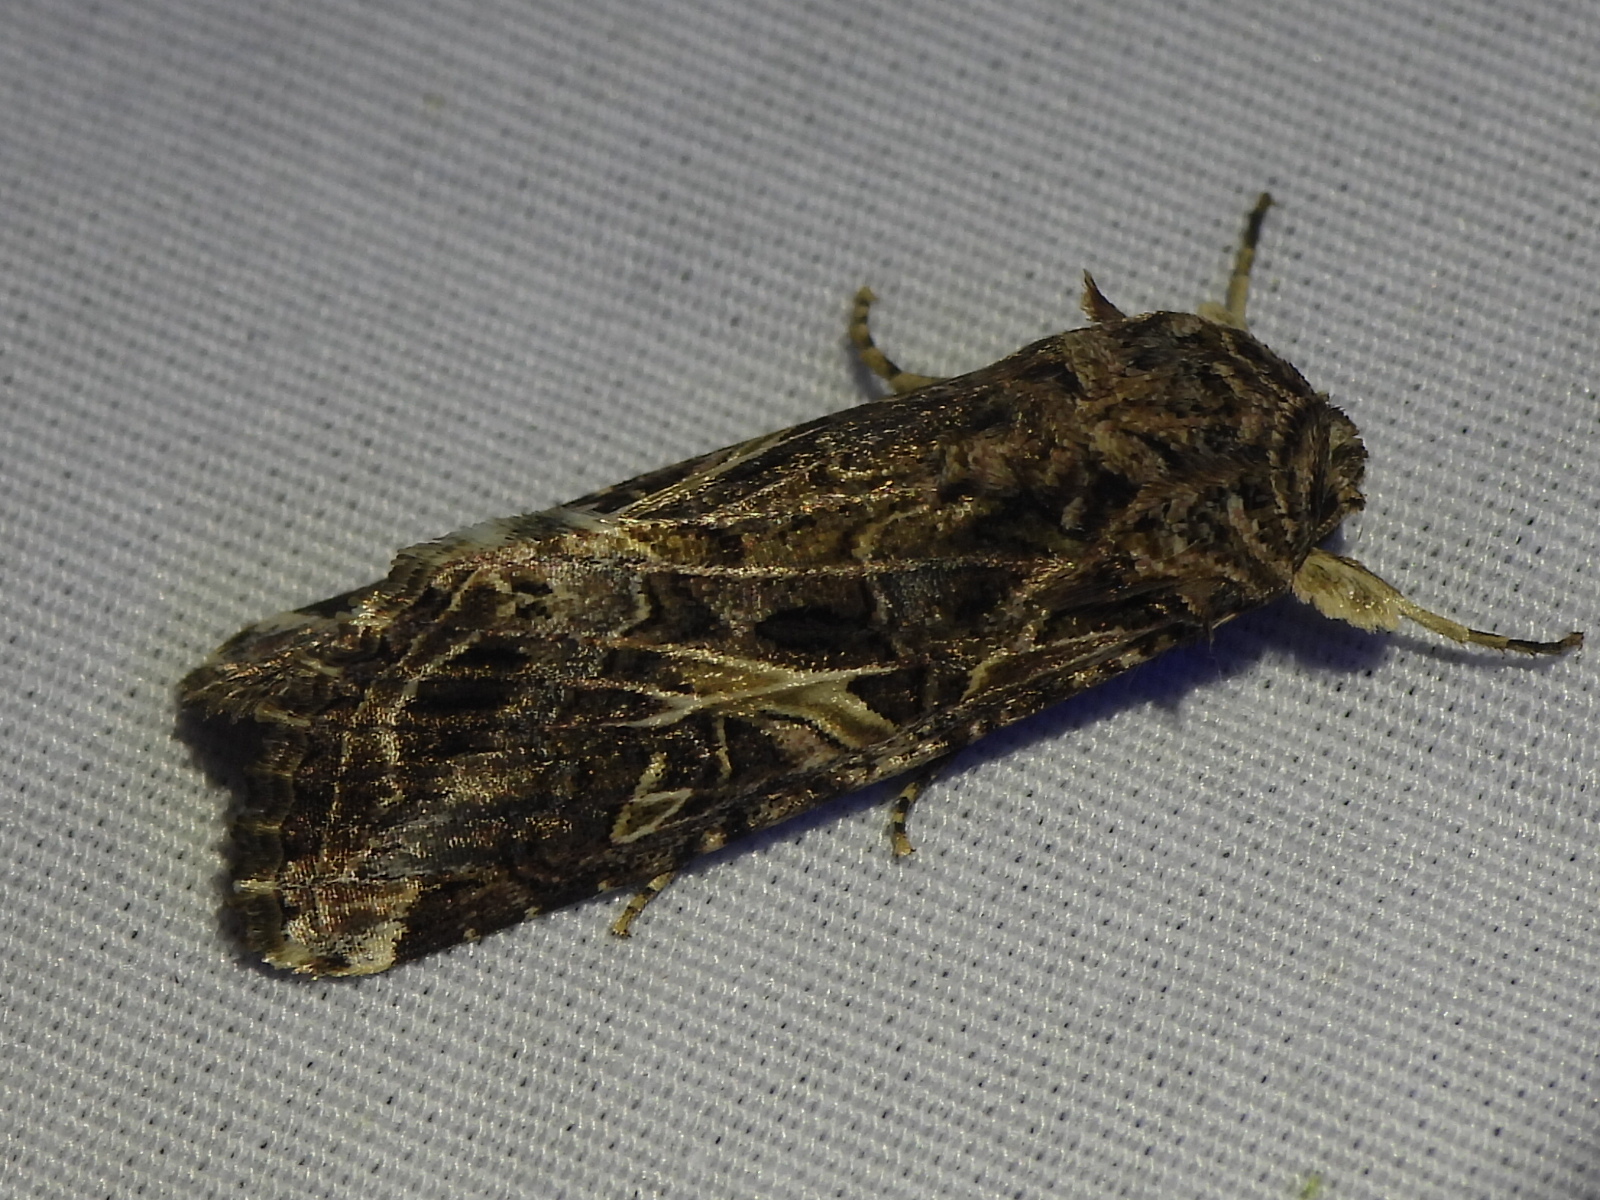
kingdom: Animalia
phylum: Arthropoda
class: Insecta
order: Lepidoptera
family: Noctuidae
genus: Spodoptera
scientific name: Spodoptera ornithogalli
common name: Yellow-striped armyworm
